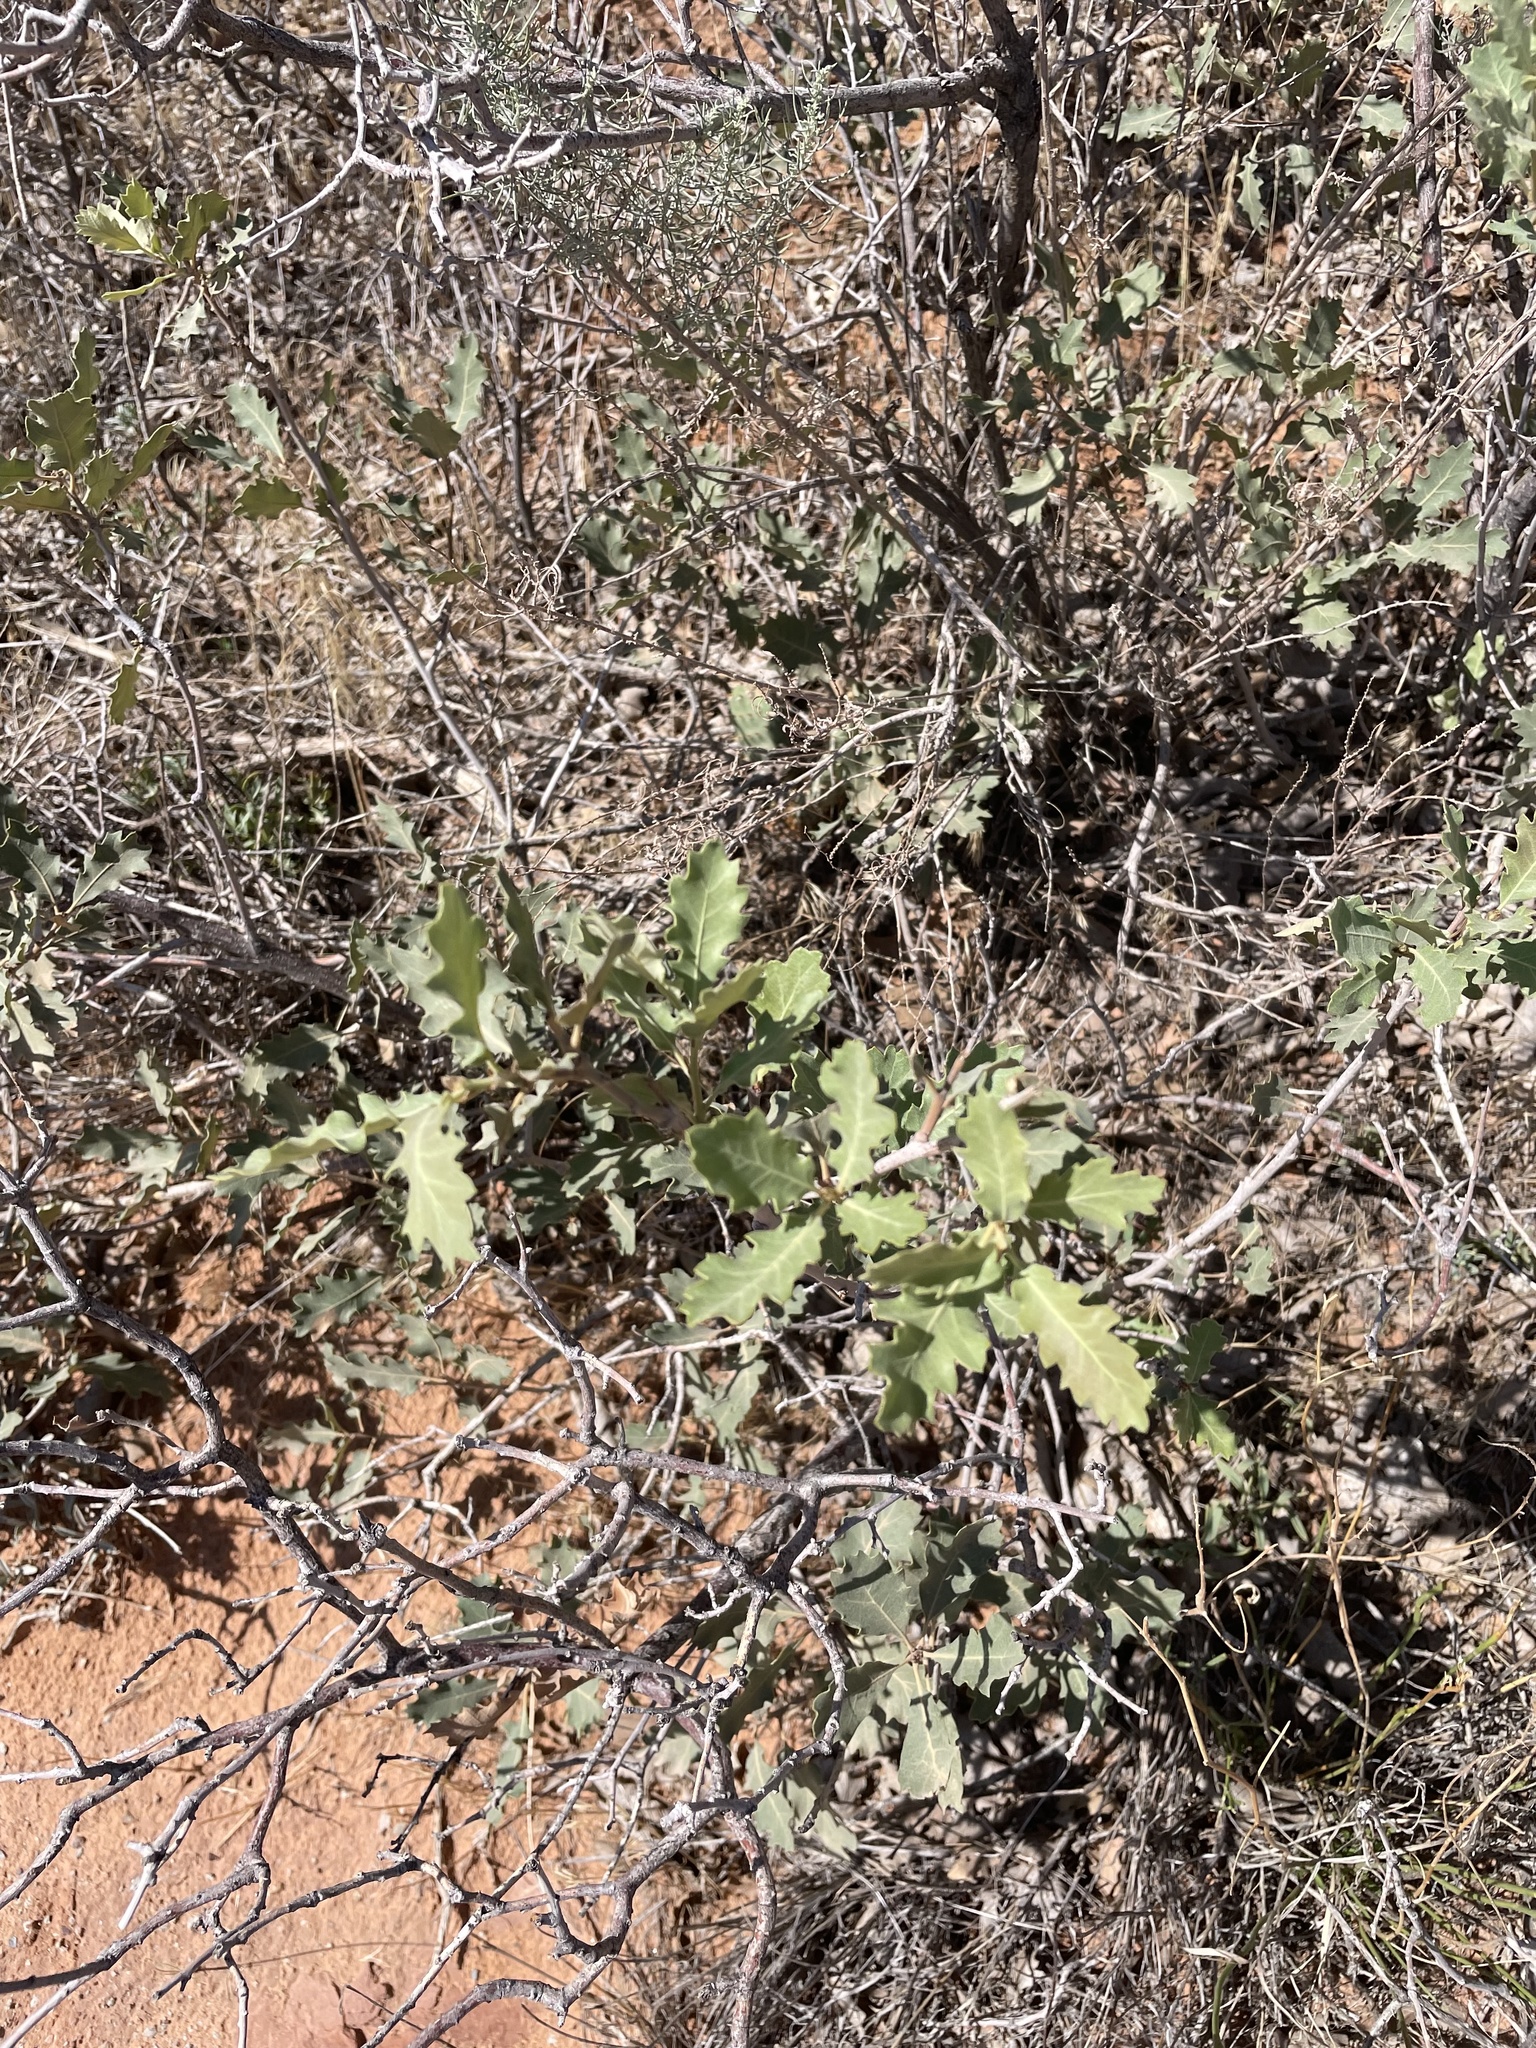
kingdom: Plantae
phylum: Tracheophyta
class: Magnoliopsida
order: Fagales
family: Fagaceae
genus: Quercus
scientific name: Quercus welshii
